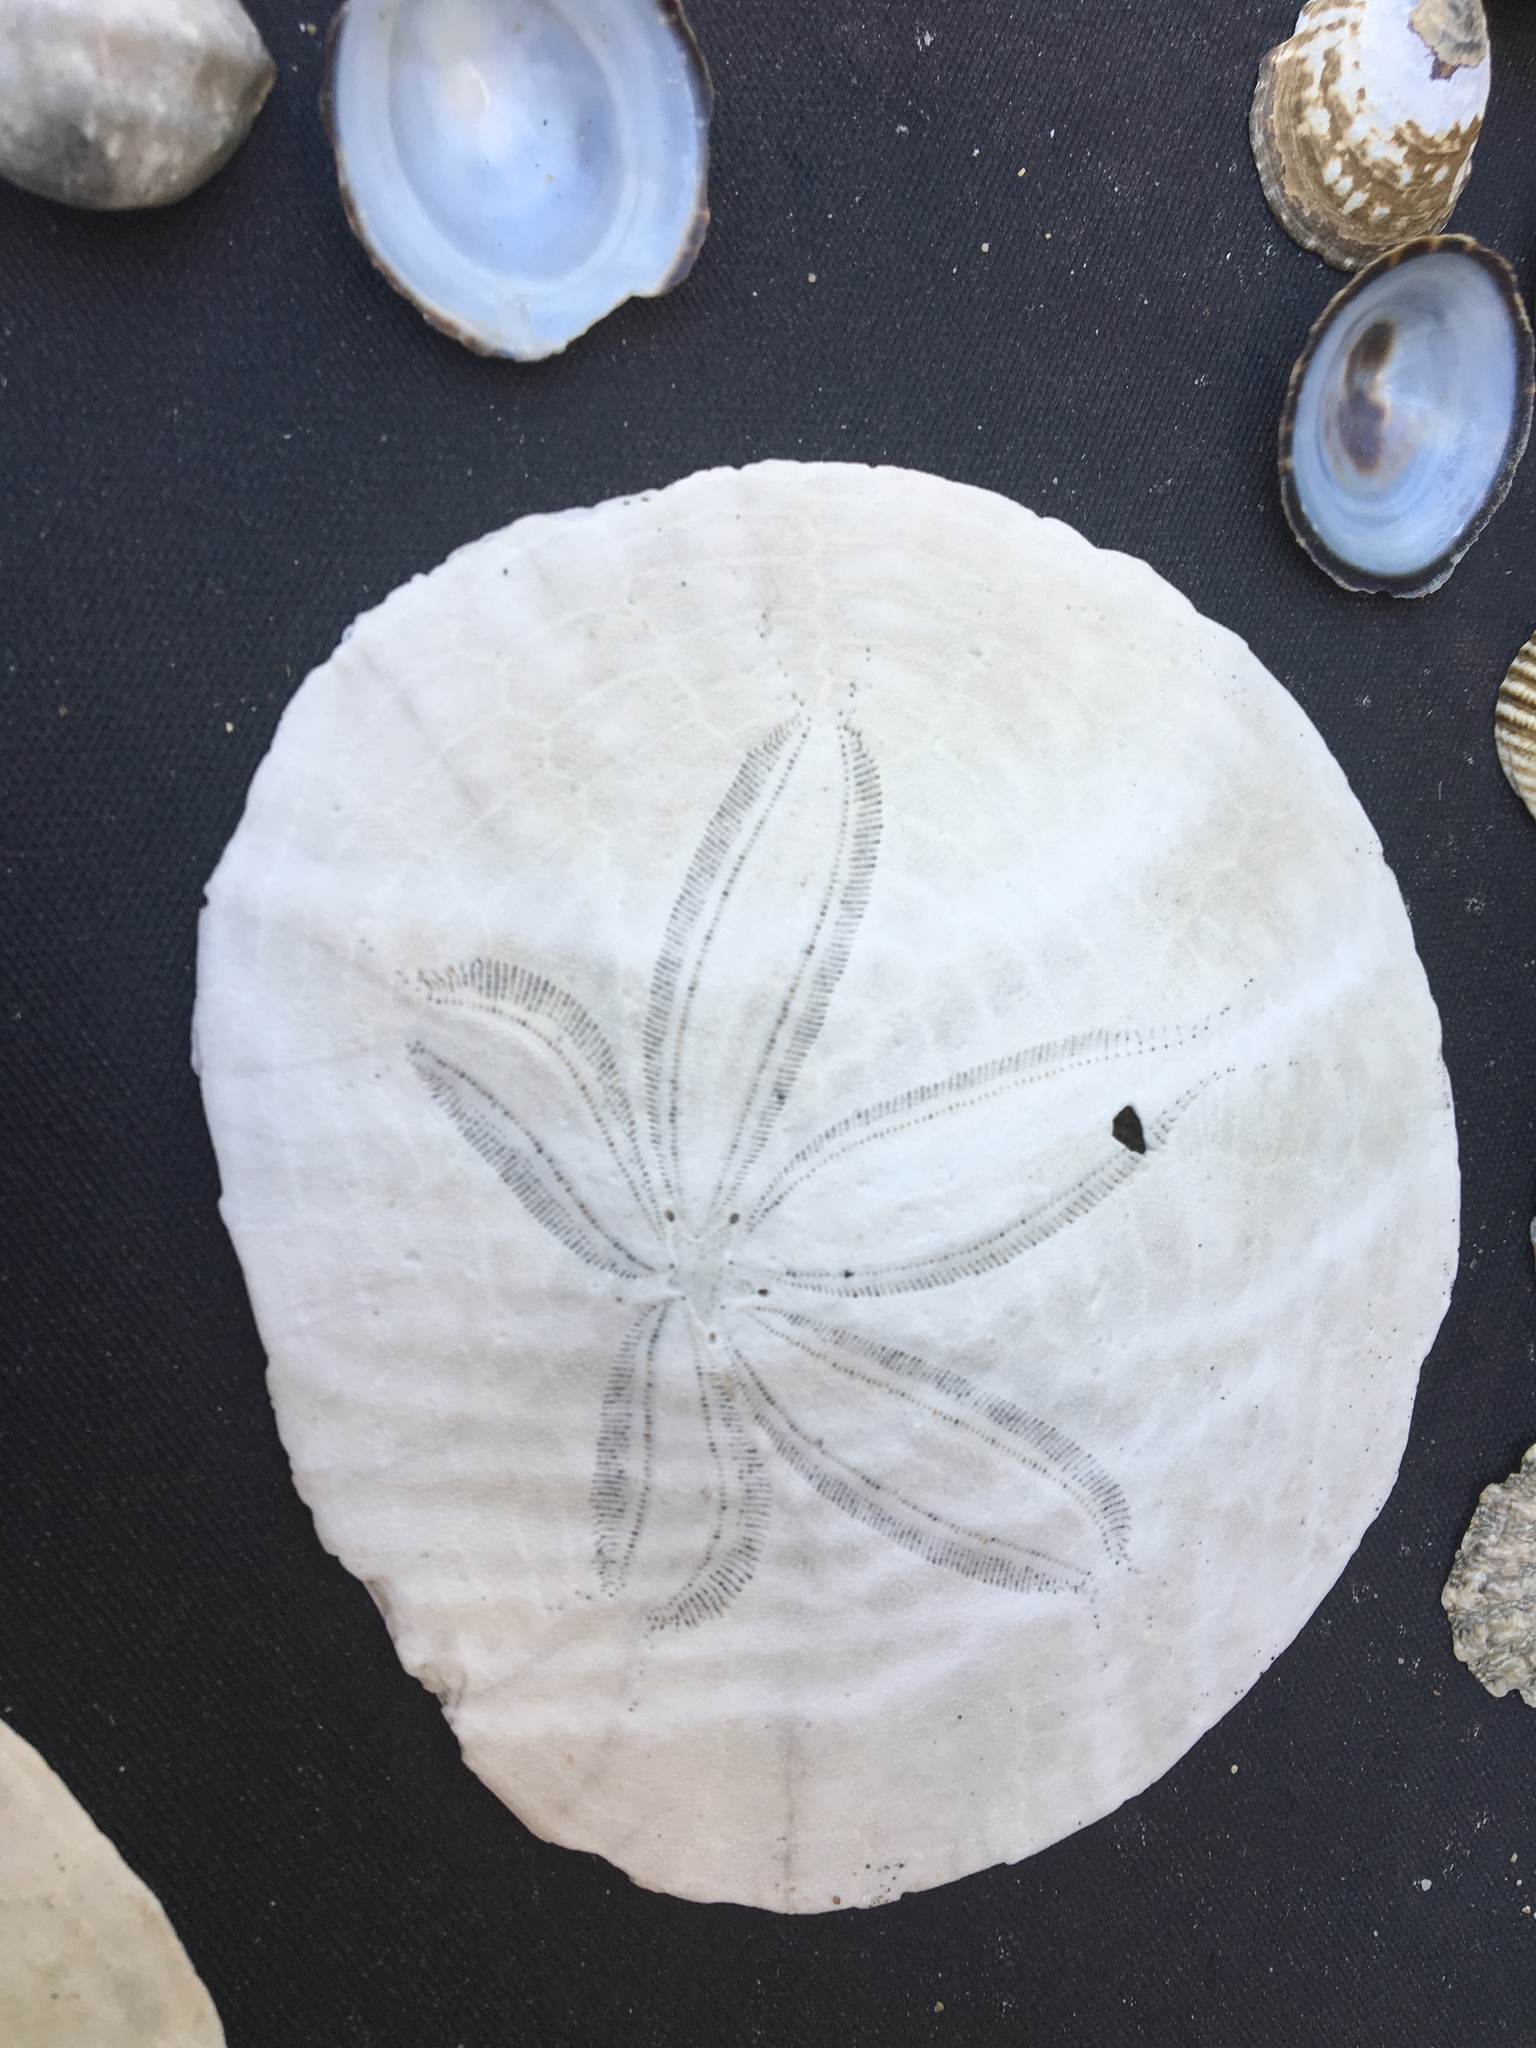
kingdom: Animalia
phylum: Echinodermata
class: Echinoidea
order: Echinolampadacea
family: Dendrasteridae
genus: Dendraster
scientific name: Dendraster excentricus
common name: Eccentric sand dollar sea urchin
